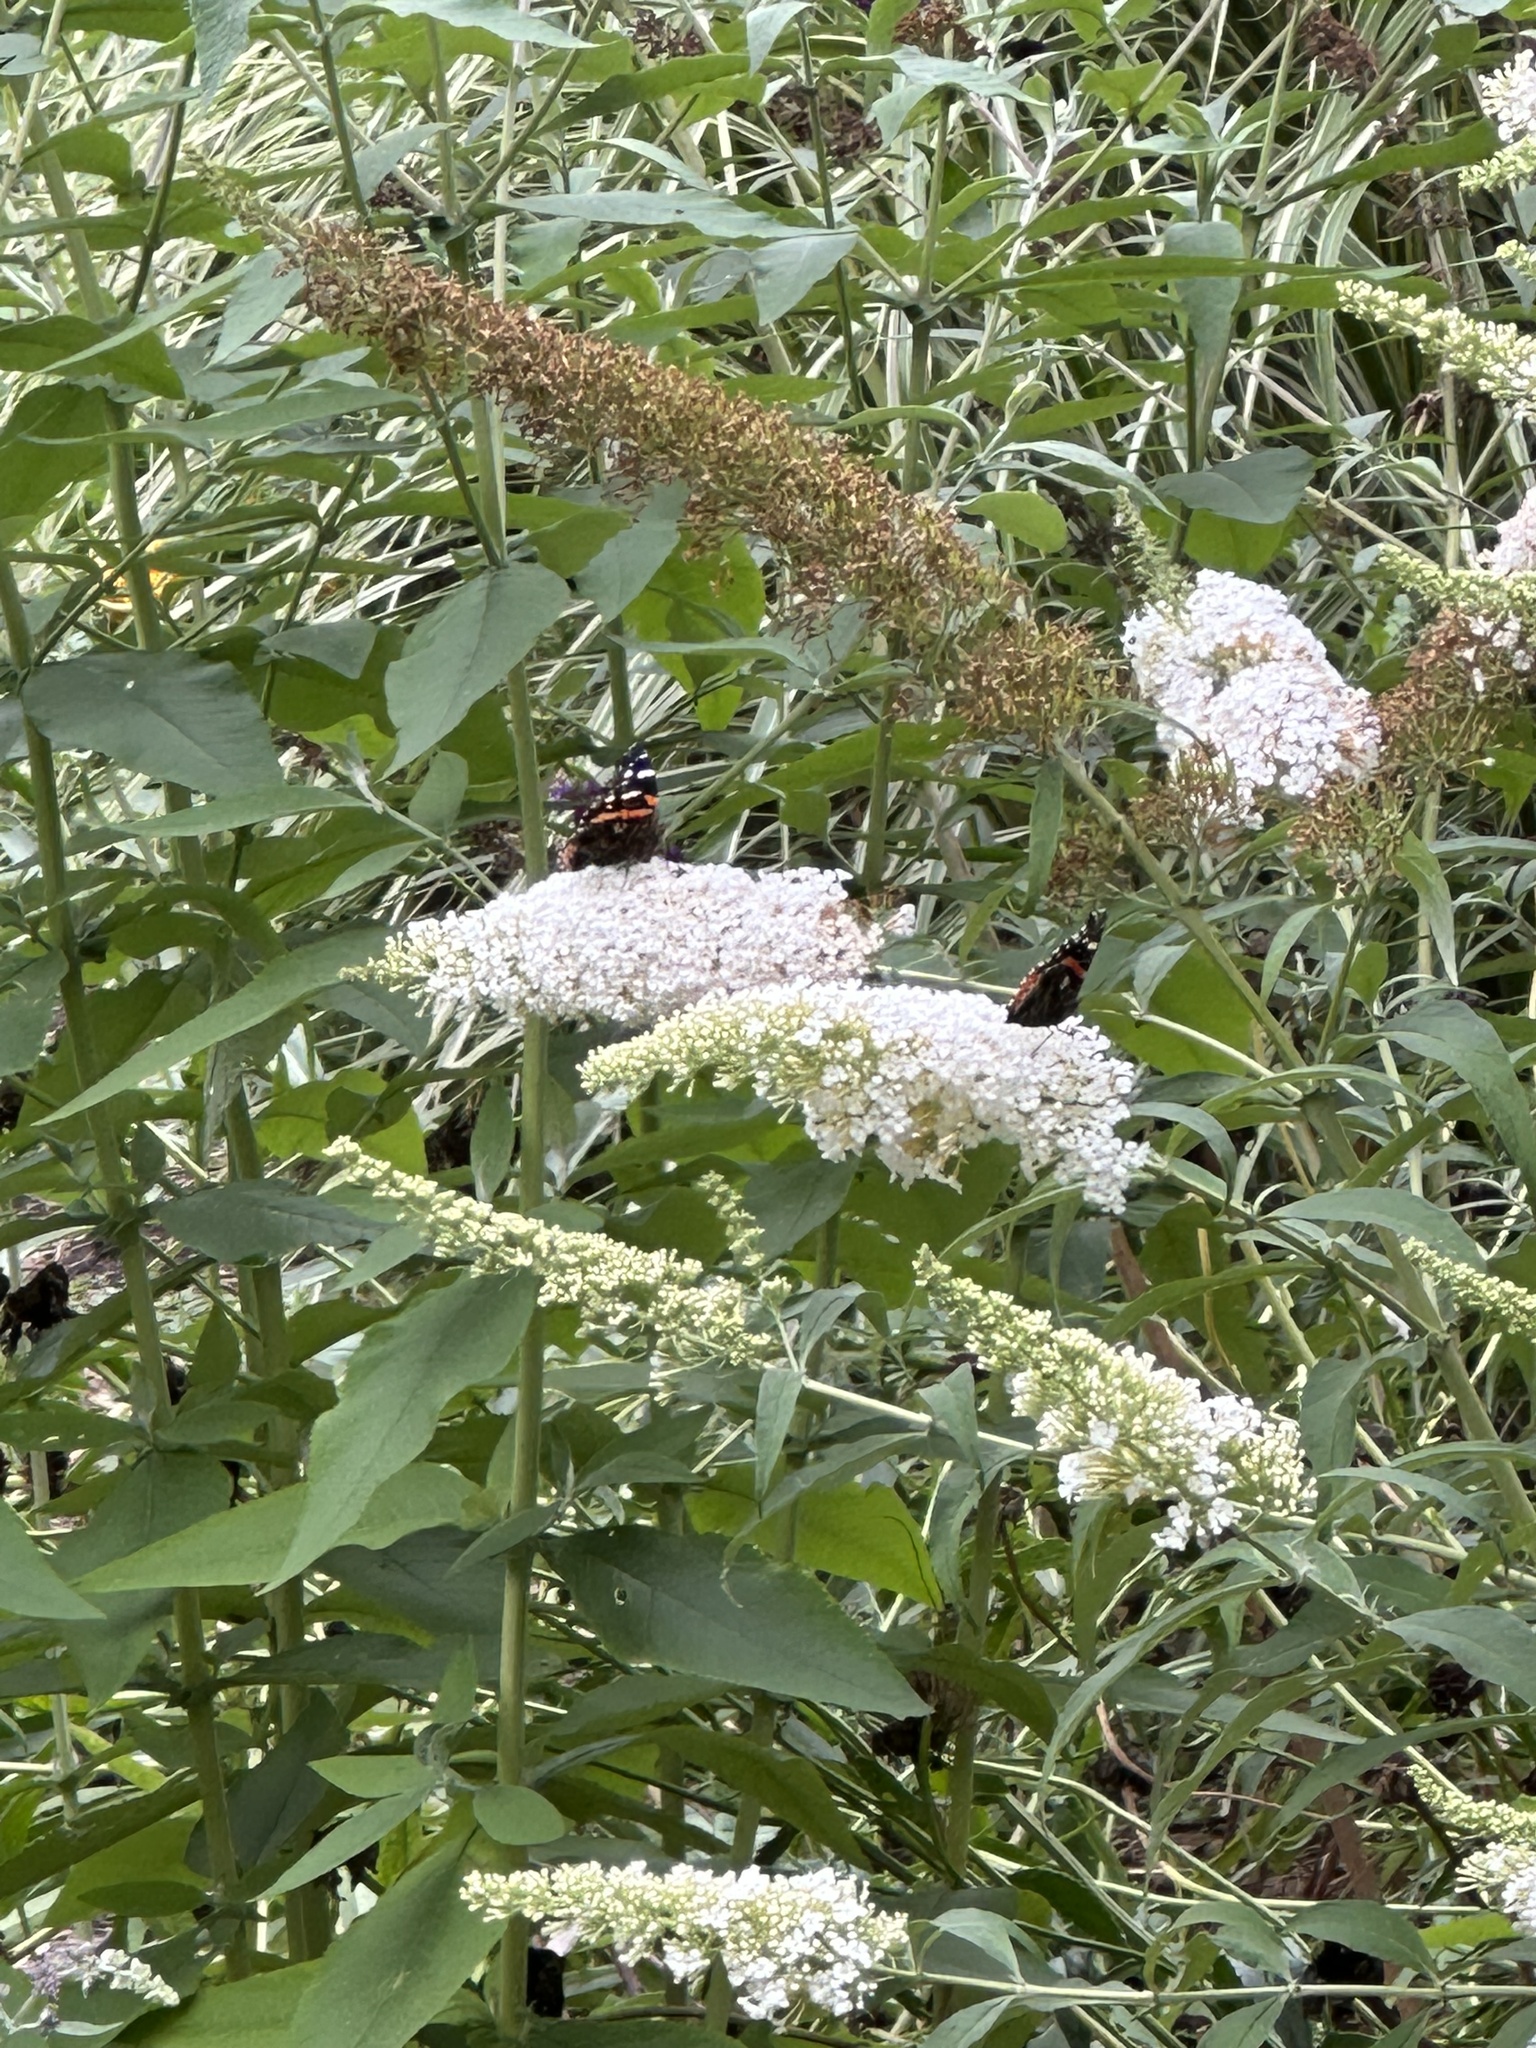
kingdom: Animalia
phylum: Arthropoda
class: Insecta
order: Lepidoptera
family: Nymphalidae
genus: Vanessa
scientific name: Vanessa atalanta
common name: Red admiral
